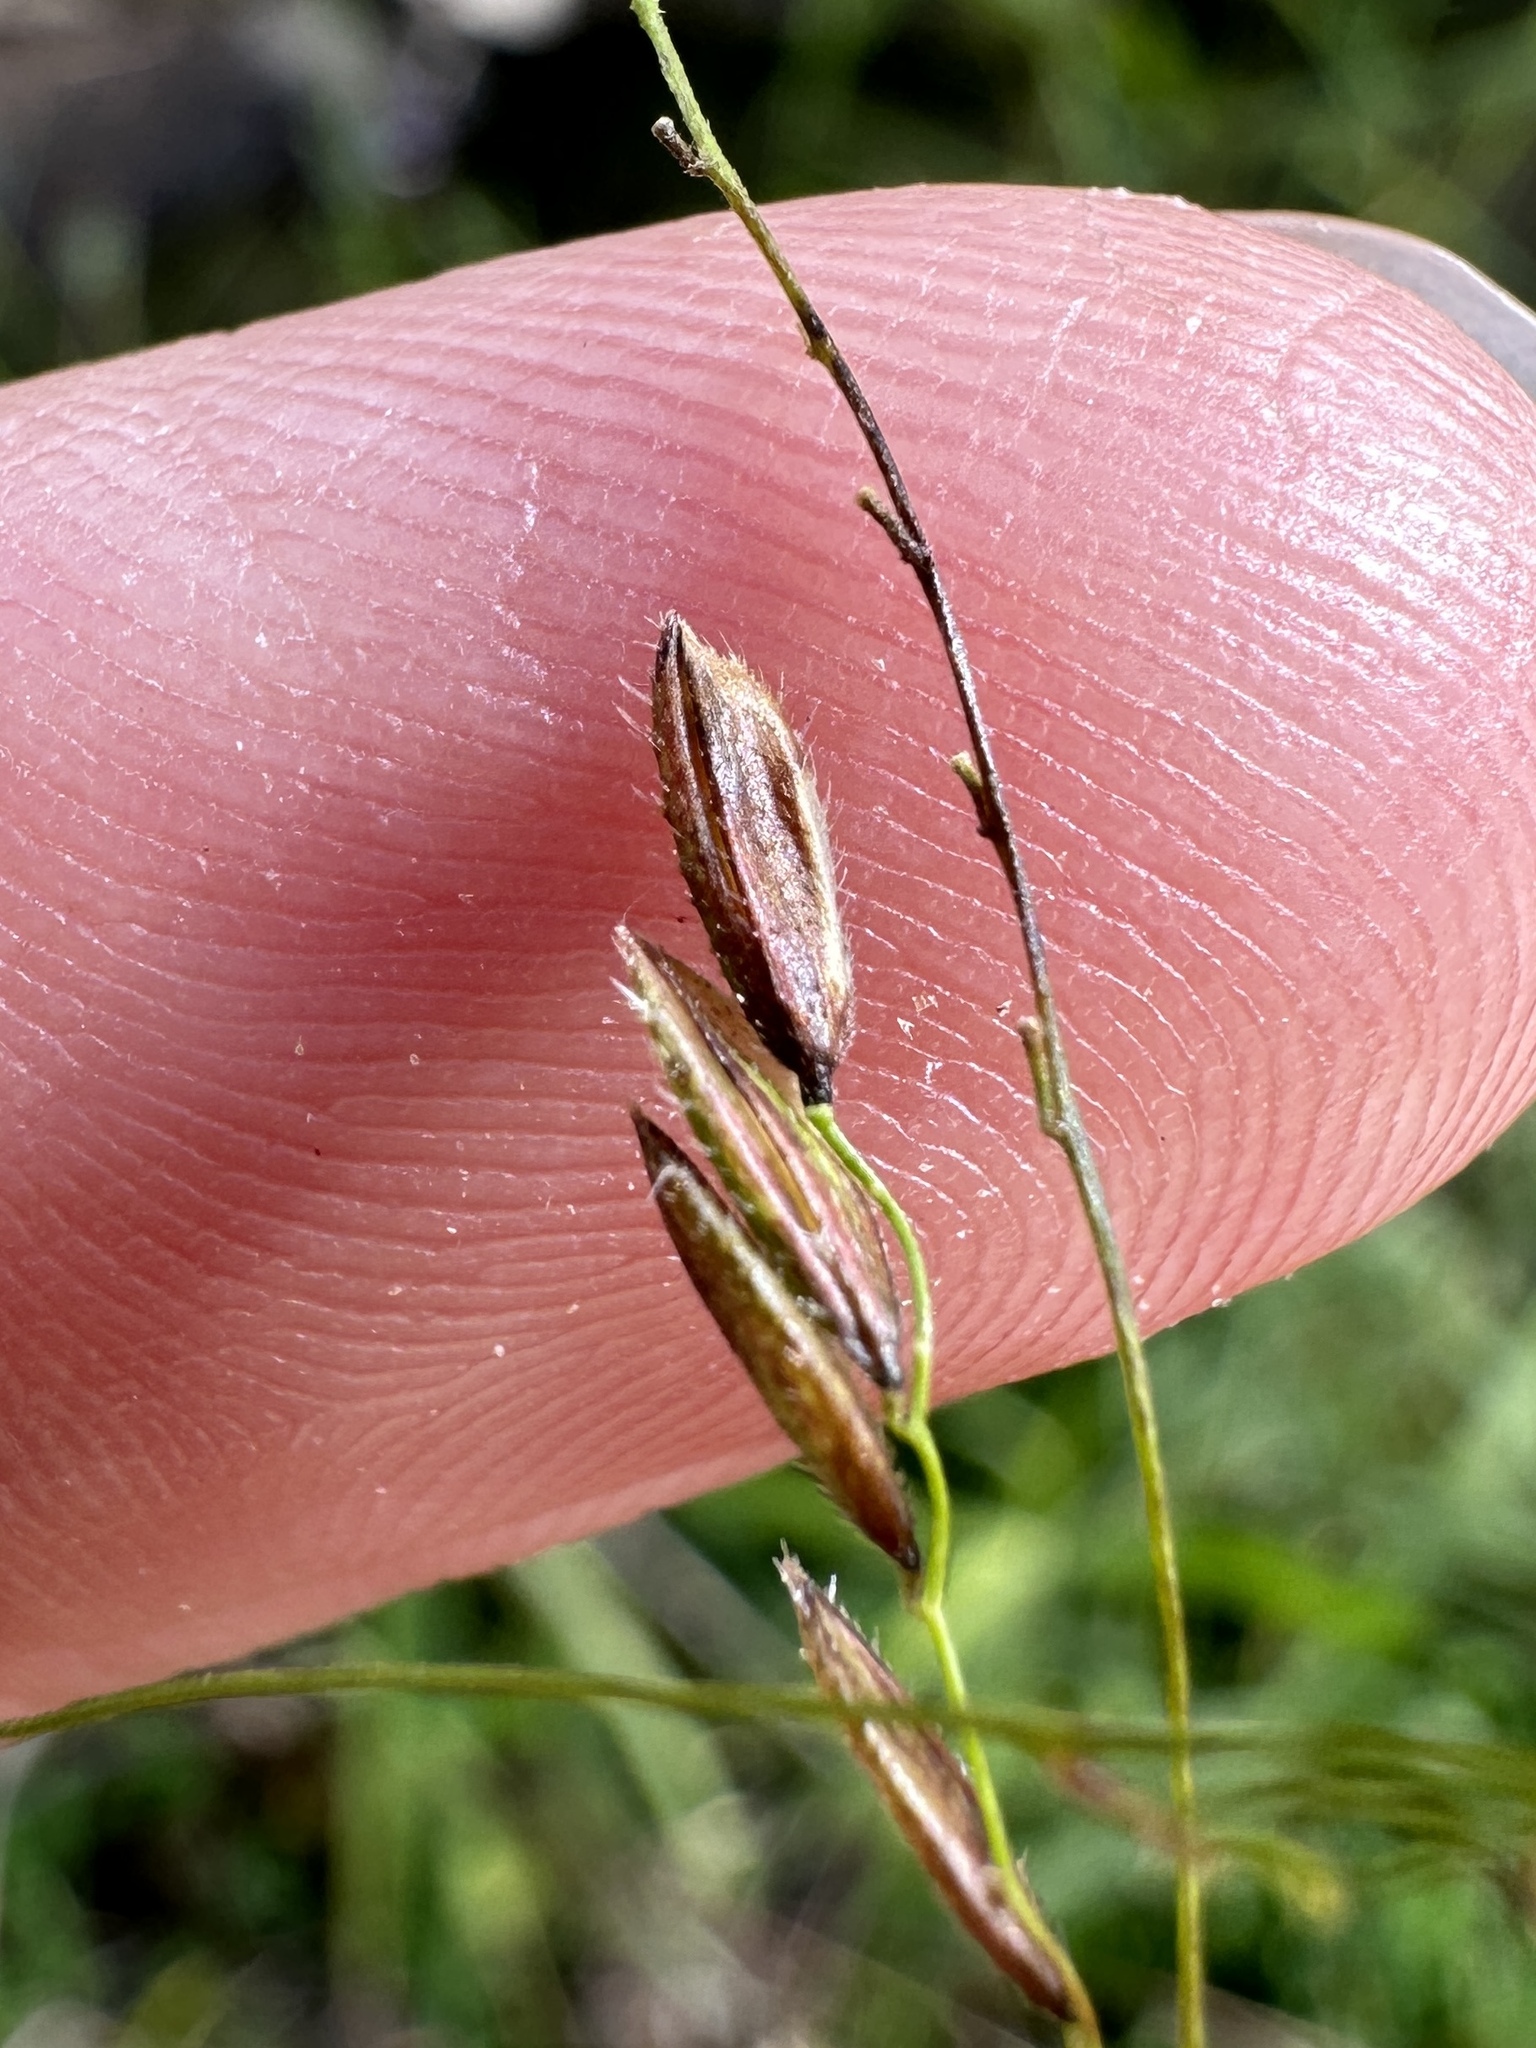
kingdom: Plantae
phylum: Tracheophyta
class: Liliopsida
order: Poales
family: Poaceae
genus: Leersia
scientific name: Leersia oryzoides
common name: Cut-grass
